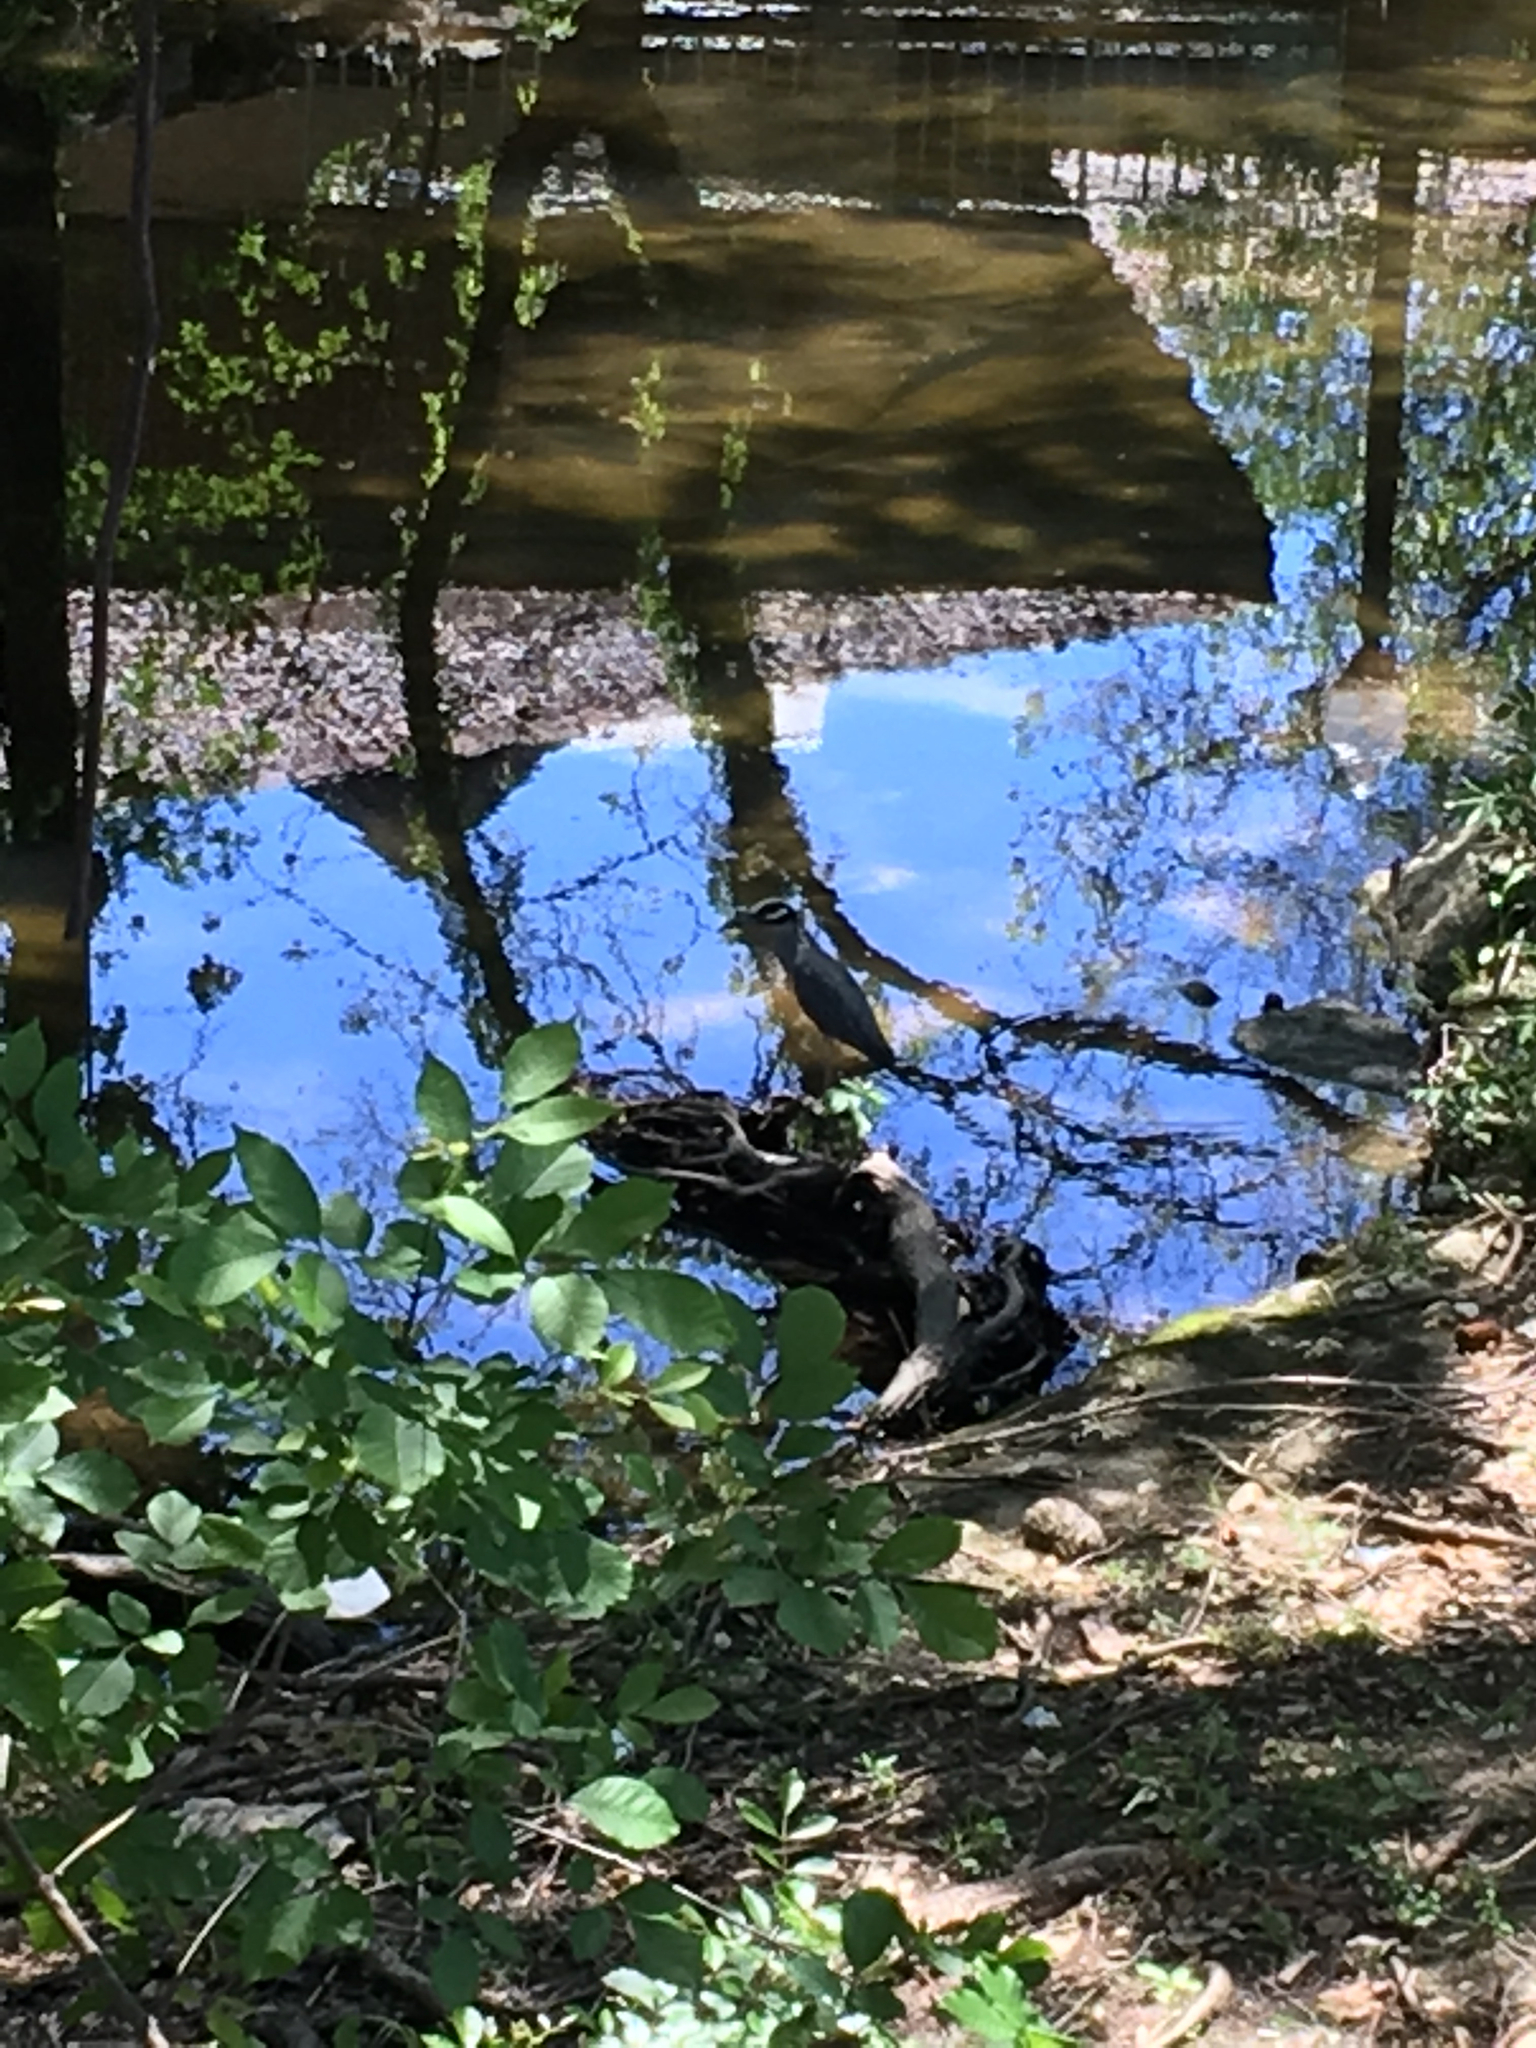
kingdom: Animalia
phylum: Chordata
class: Aves
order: Pelecaniformes
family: Ardeidae
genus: Nyctanassa
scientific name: Nyctanassa violacea
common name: Yellow-crowned night heron
